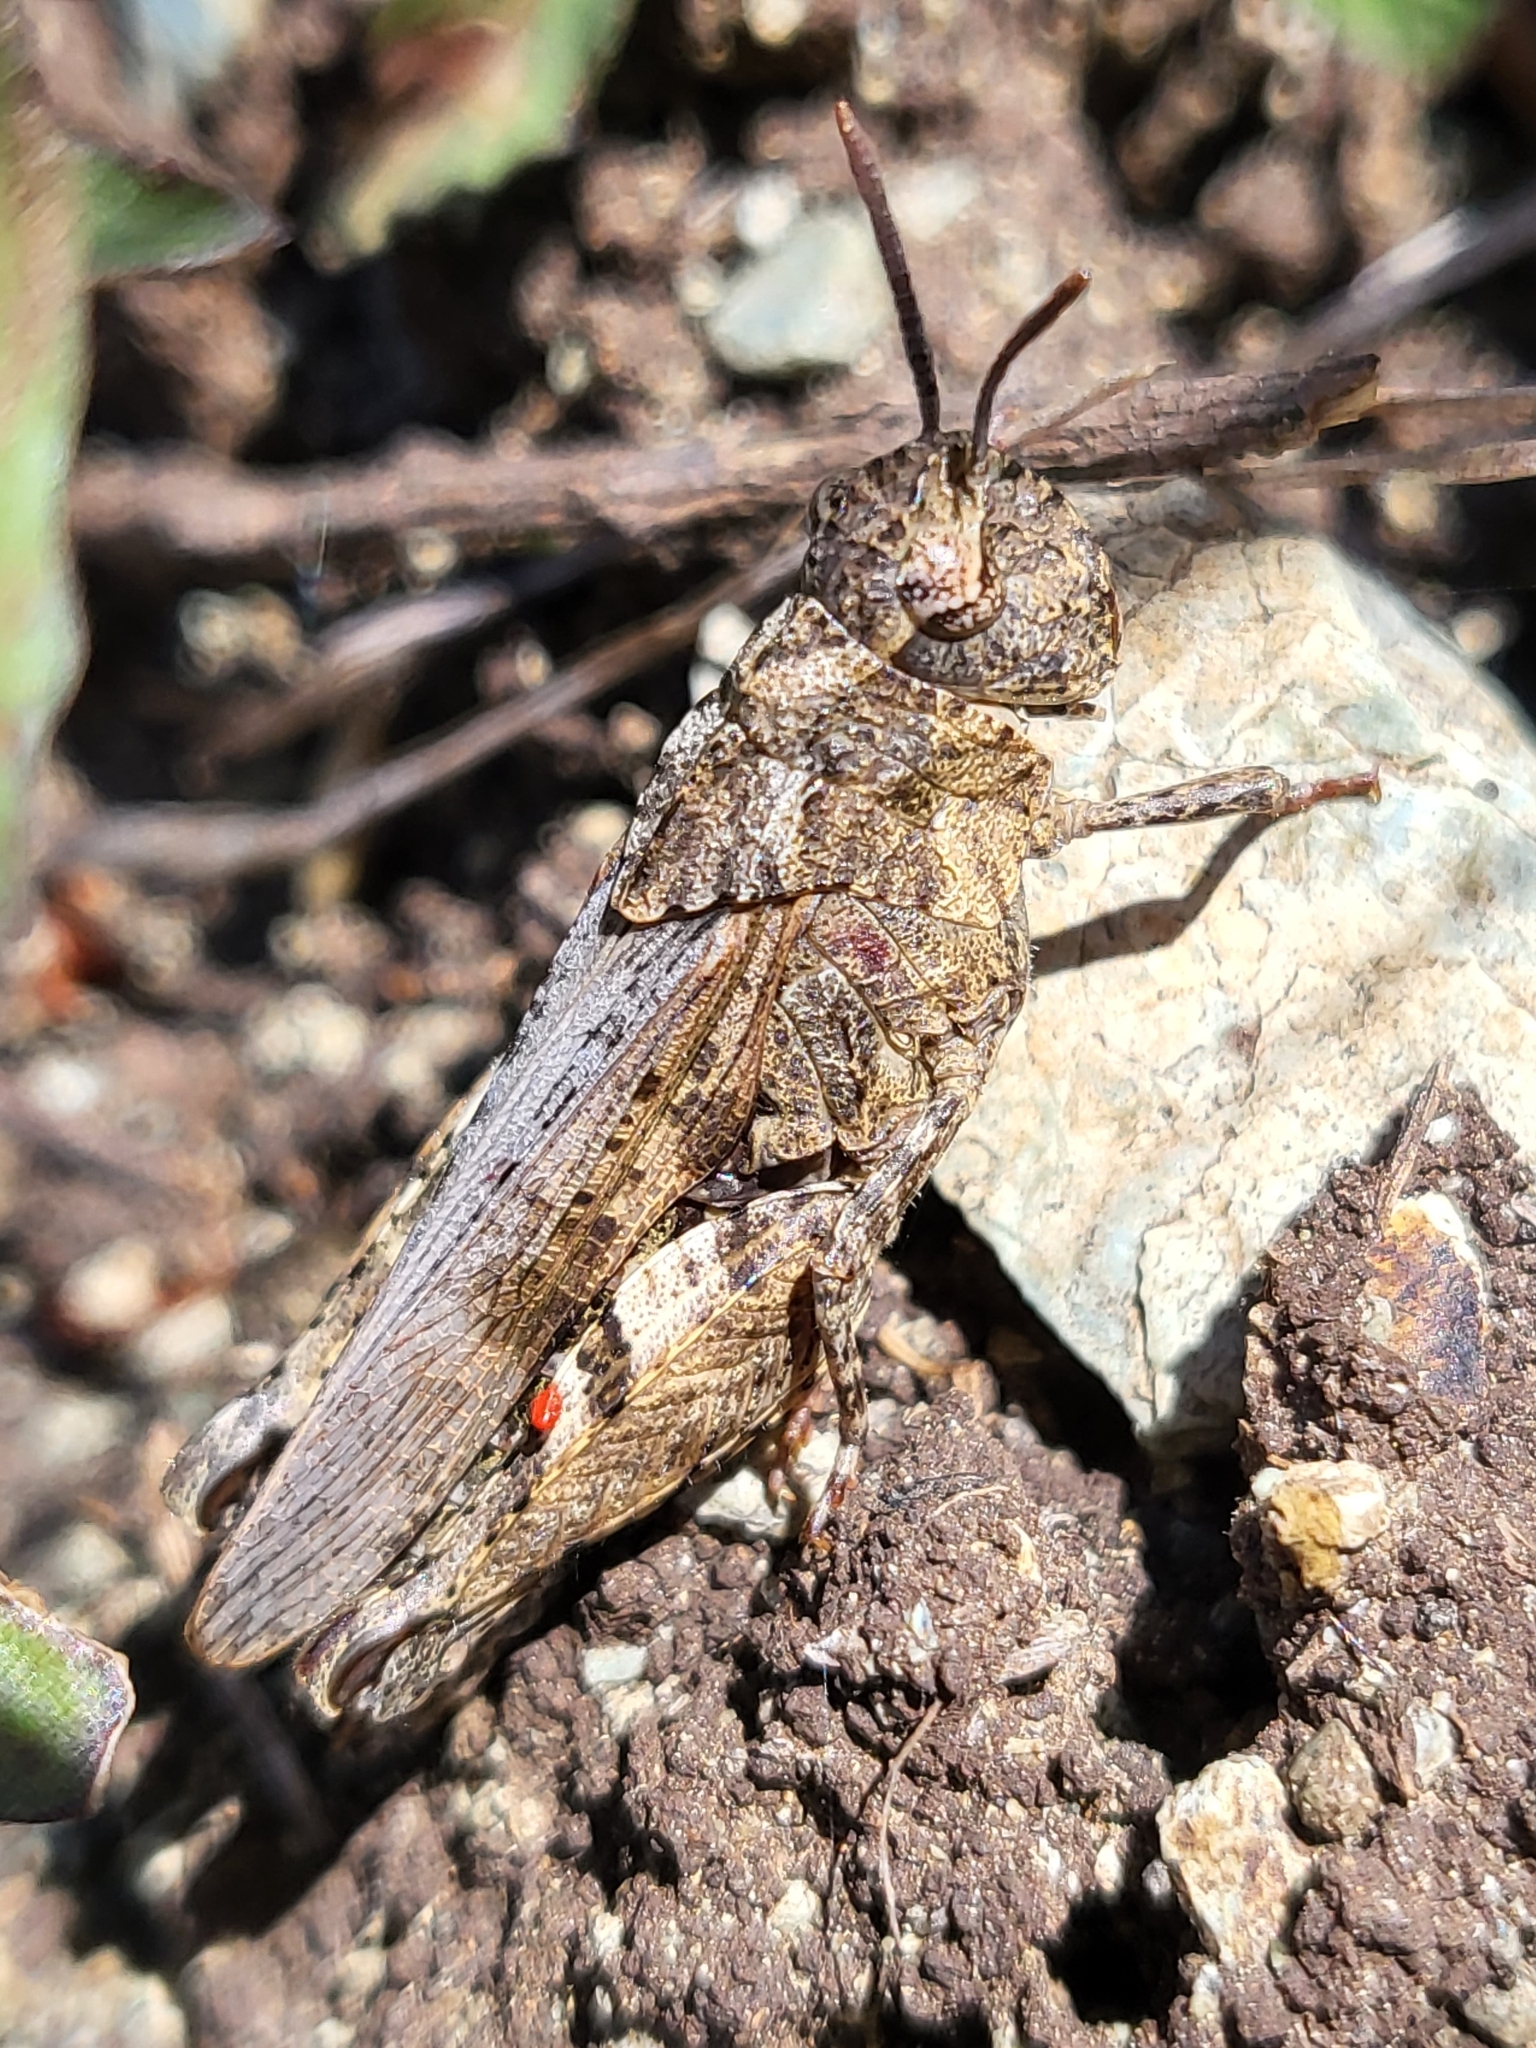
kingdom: Animalia
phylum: Arthropoda
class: Insecta
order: Orthoptera
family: Acrididae
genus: Chimarocephala
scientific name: Chimarocephala pacifica
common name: Painted meadow grasshopper
